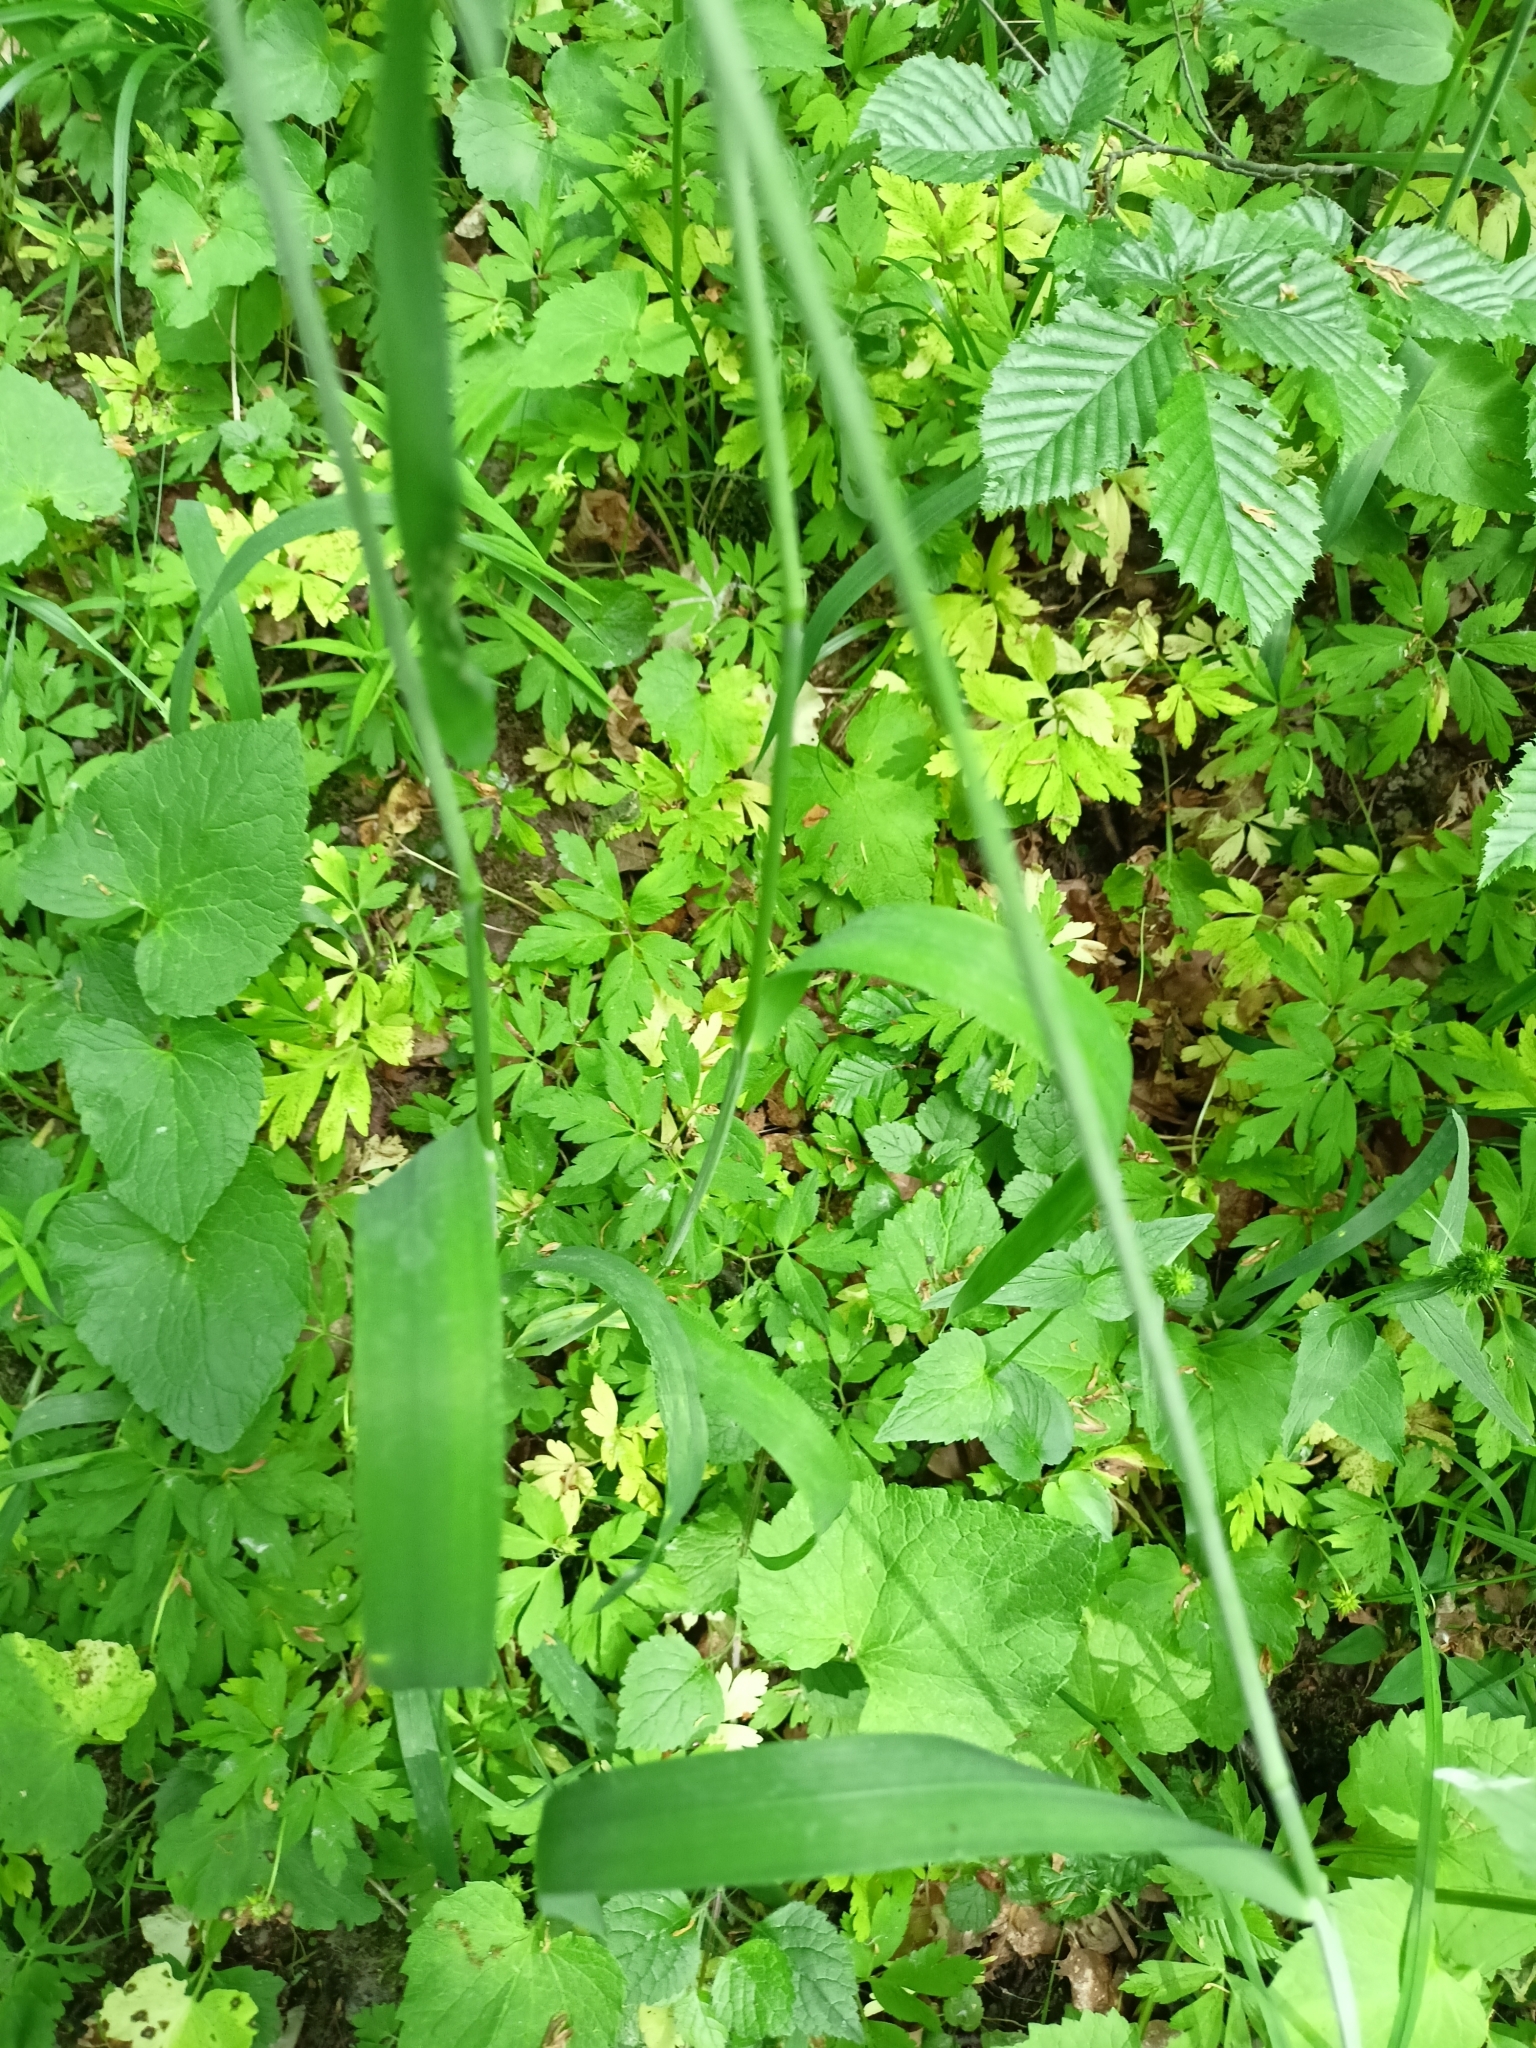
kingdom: Plantae
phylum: Tracheophyta
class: Liliopsida
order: Poales
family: Poaceae
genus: Milium
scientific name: Milium effusum
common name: Wood millet
